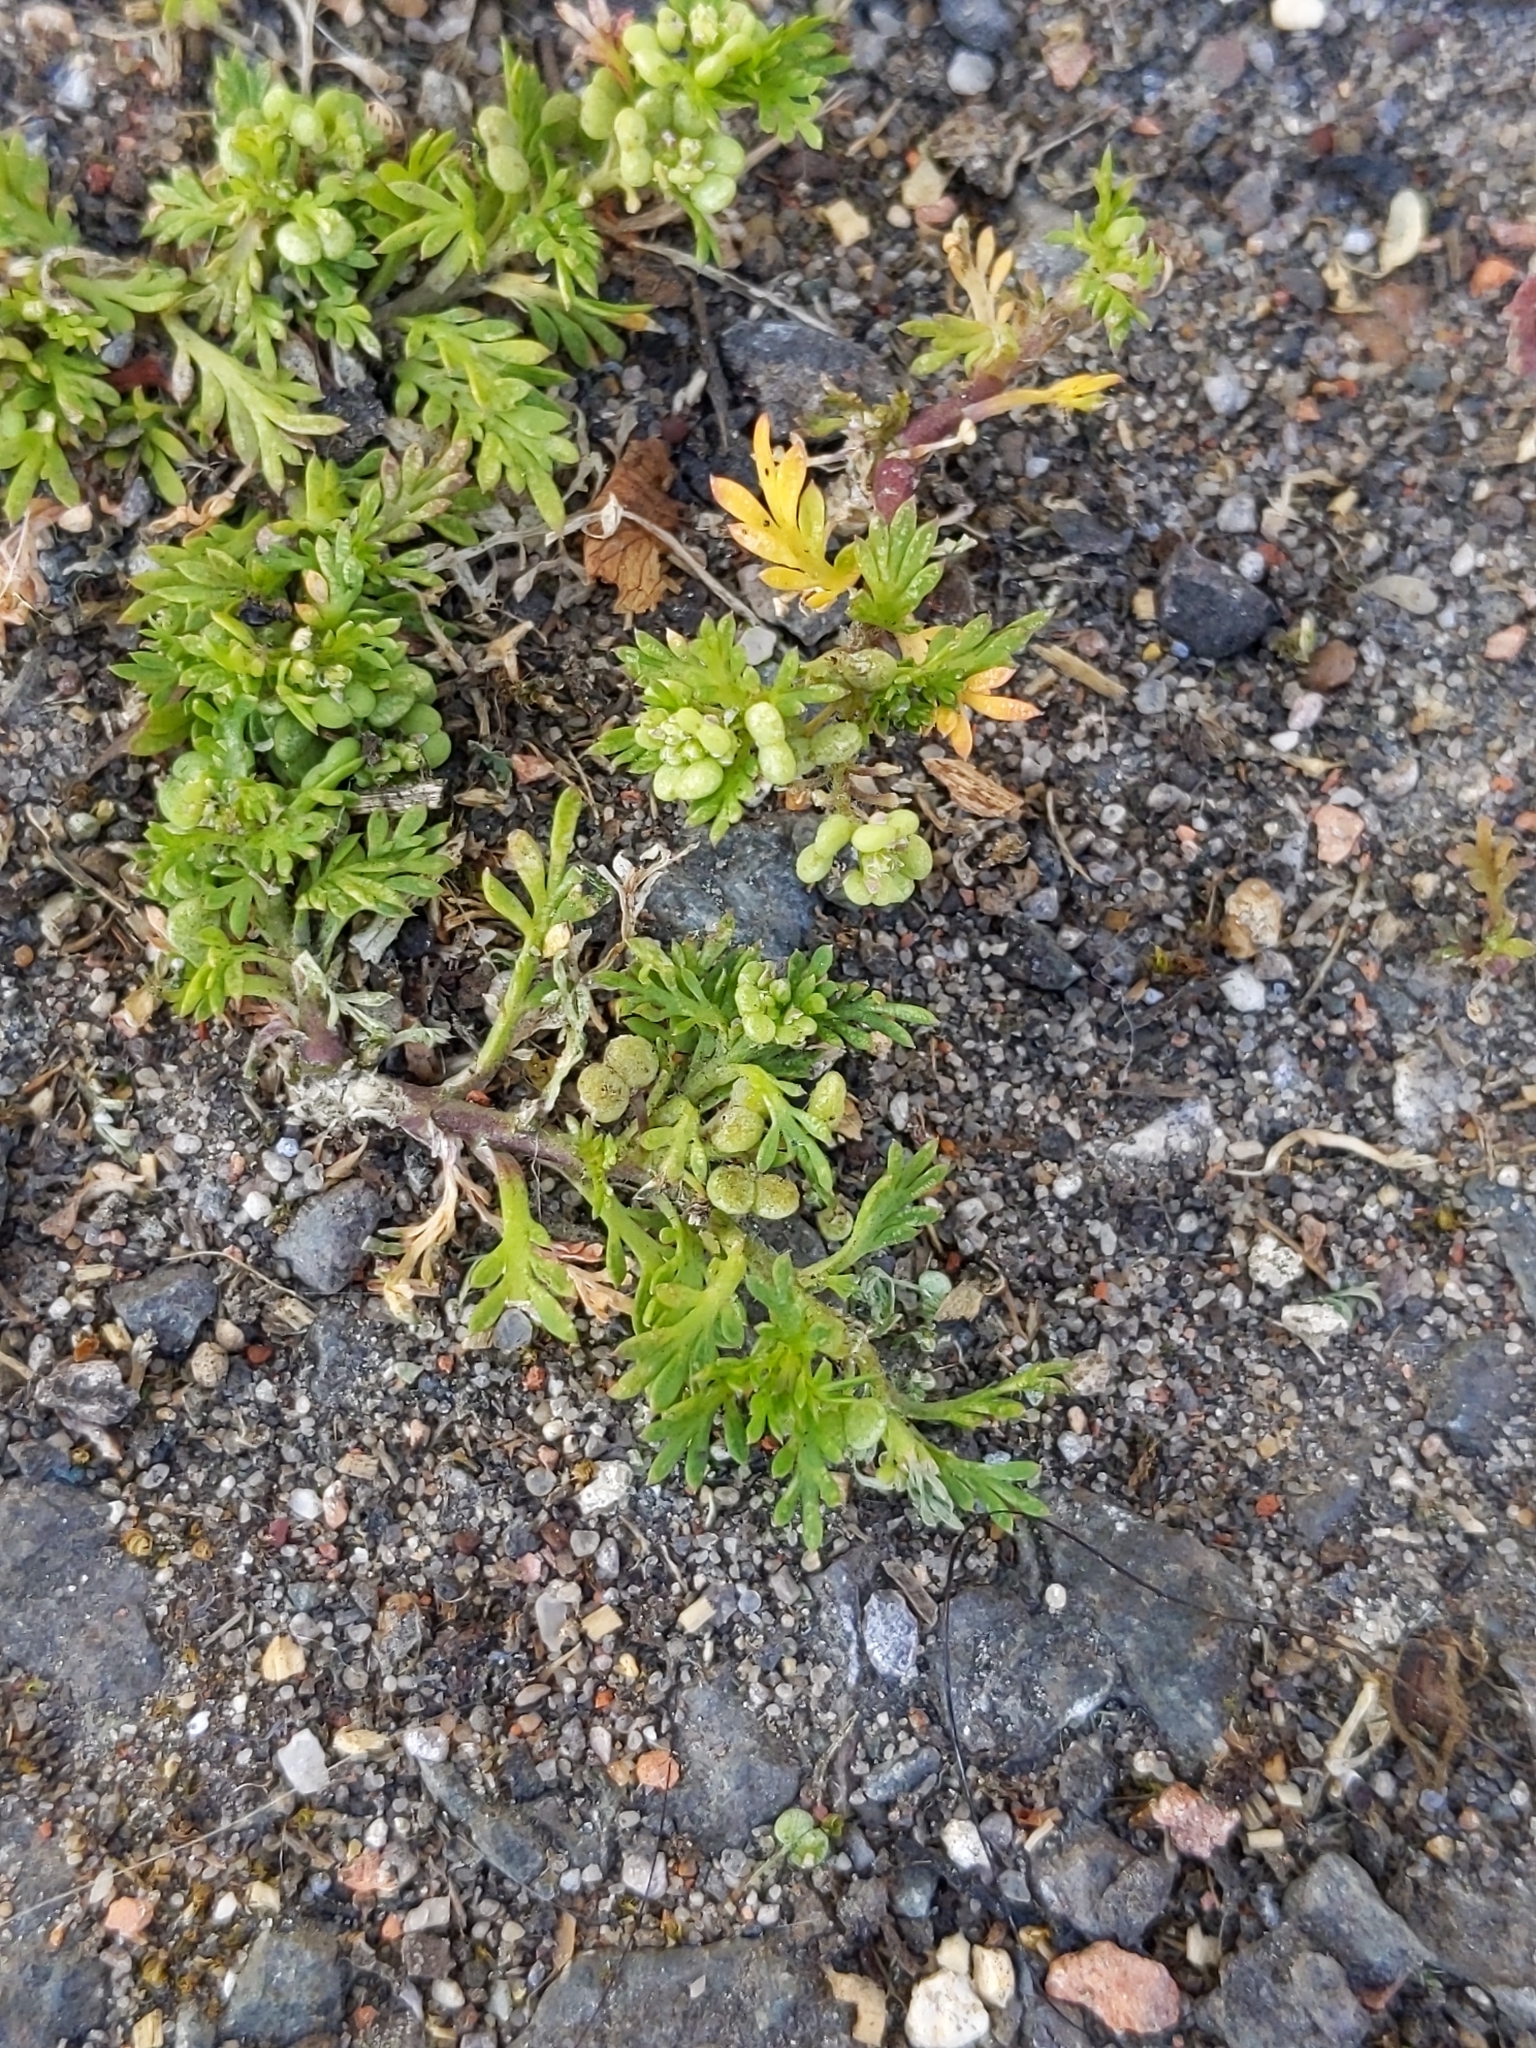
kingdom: Plantae
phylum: Tracheophyta
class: Magnoliopsida
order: Brassicales
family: Brassicaceae
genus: Lepidium
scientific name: Lepidium didymum
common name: Lesser swinecress
